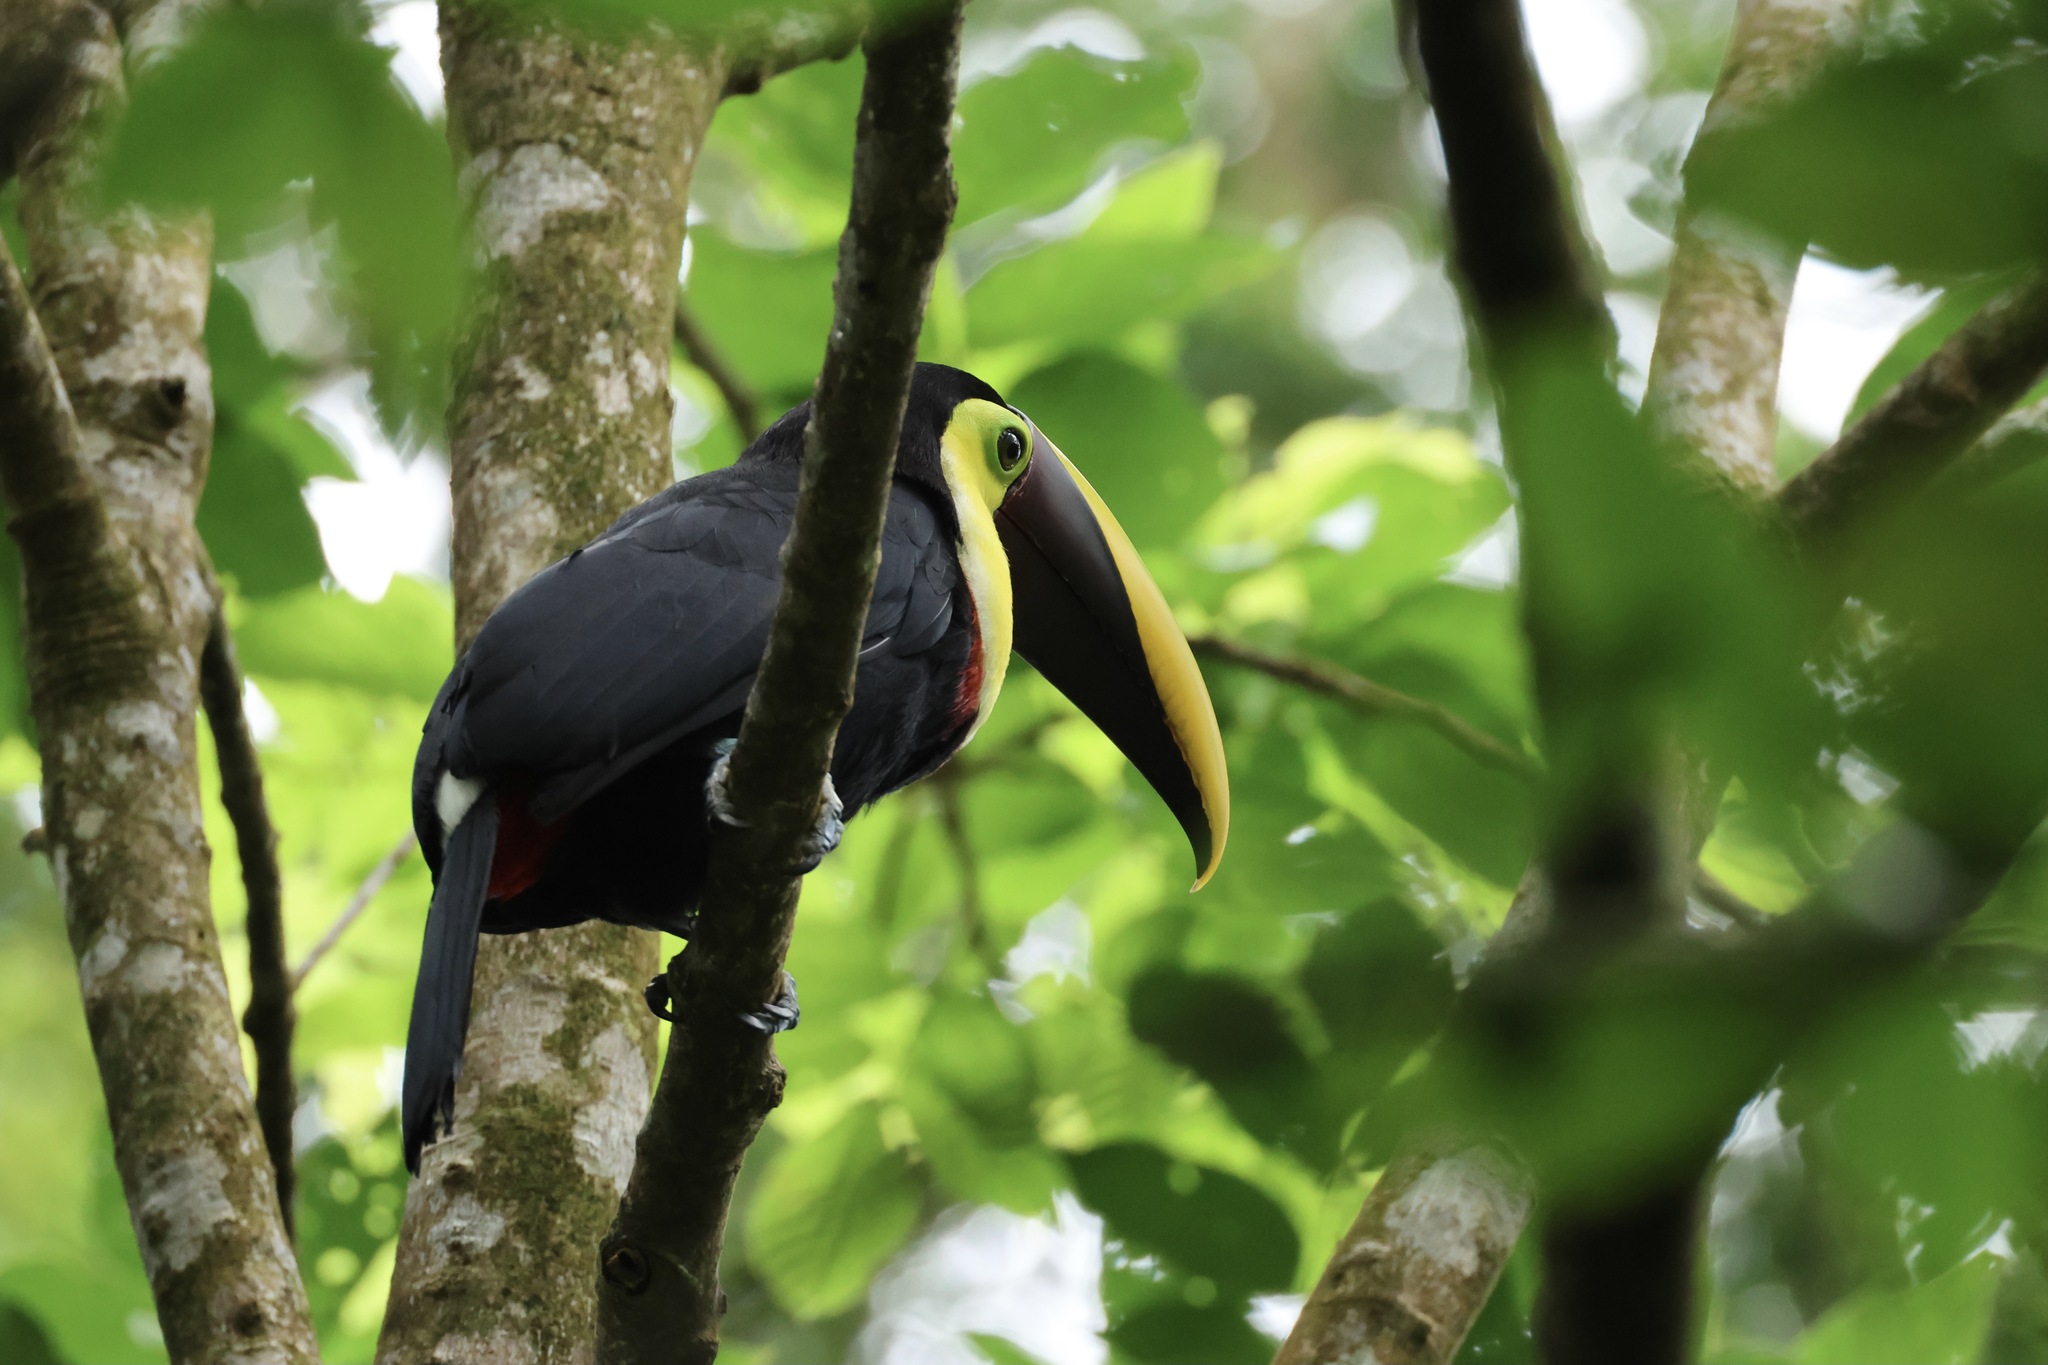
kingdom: Animalia
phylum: Chordata
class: Aves
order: Piciformes
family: Ramphastidae
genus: Ramphastos
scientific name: Ramphastos ambiguus
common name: Yellow-throated toucan
